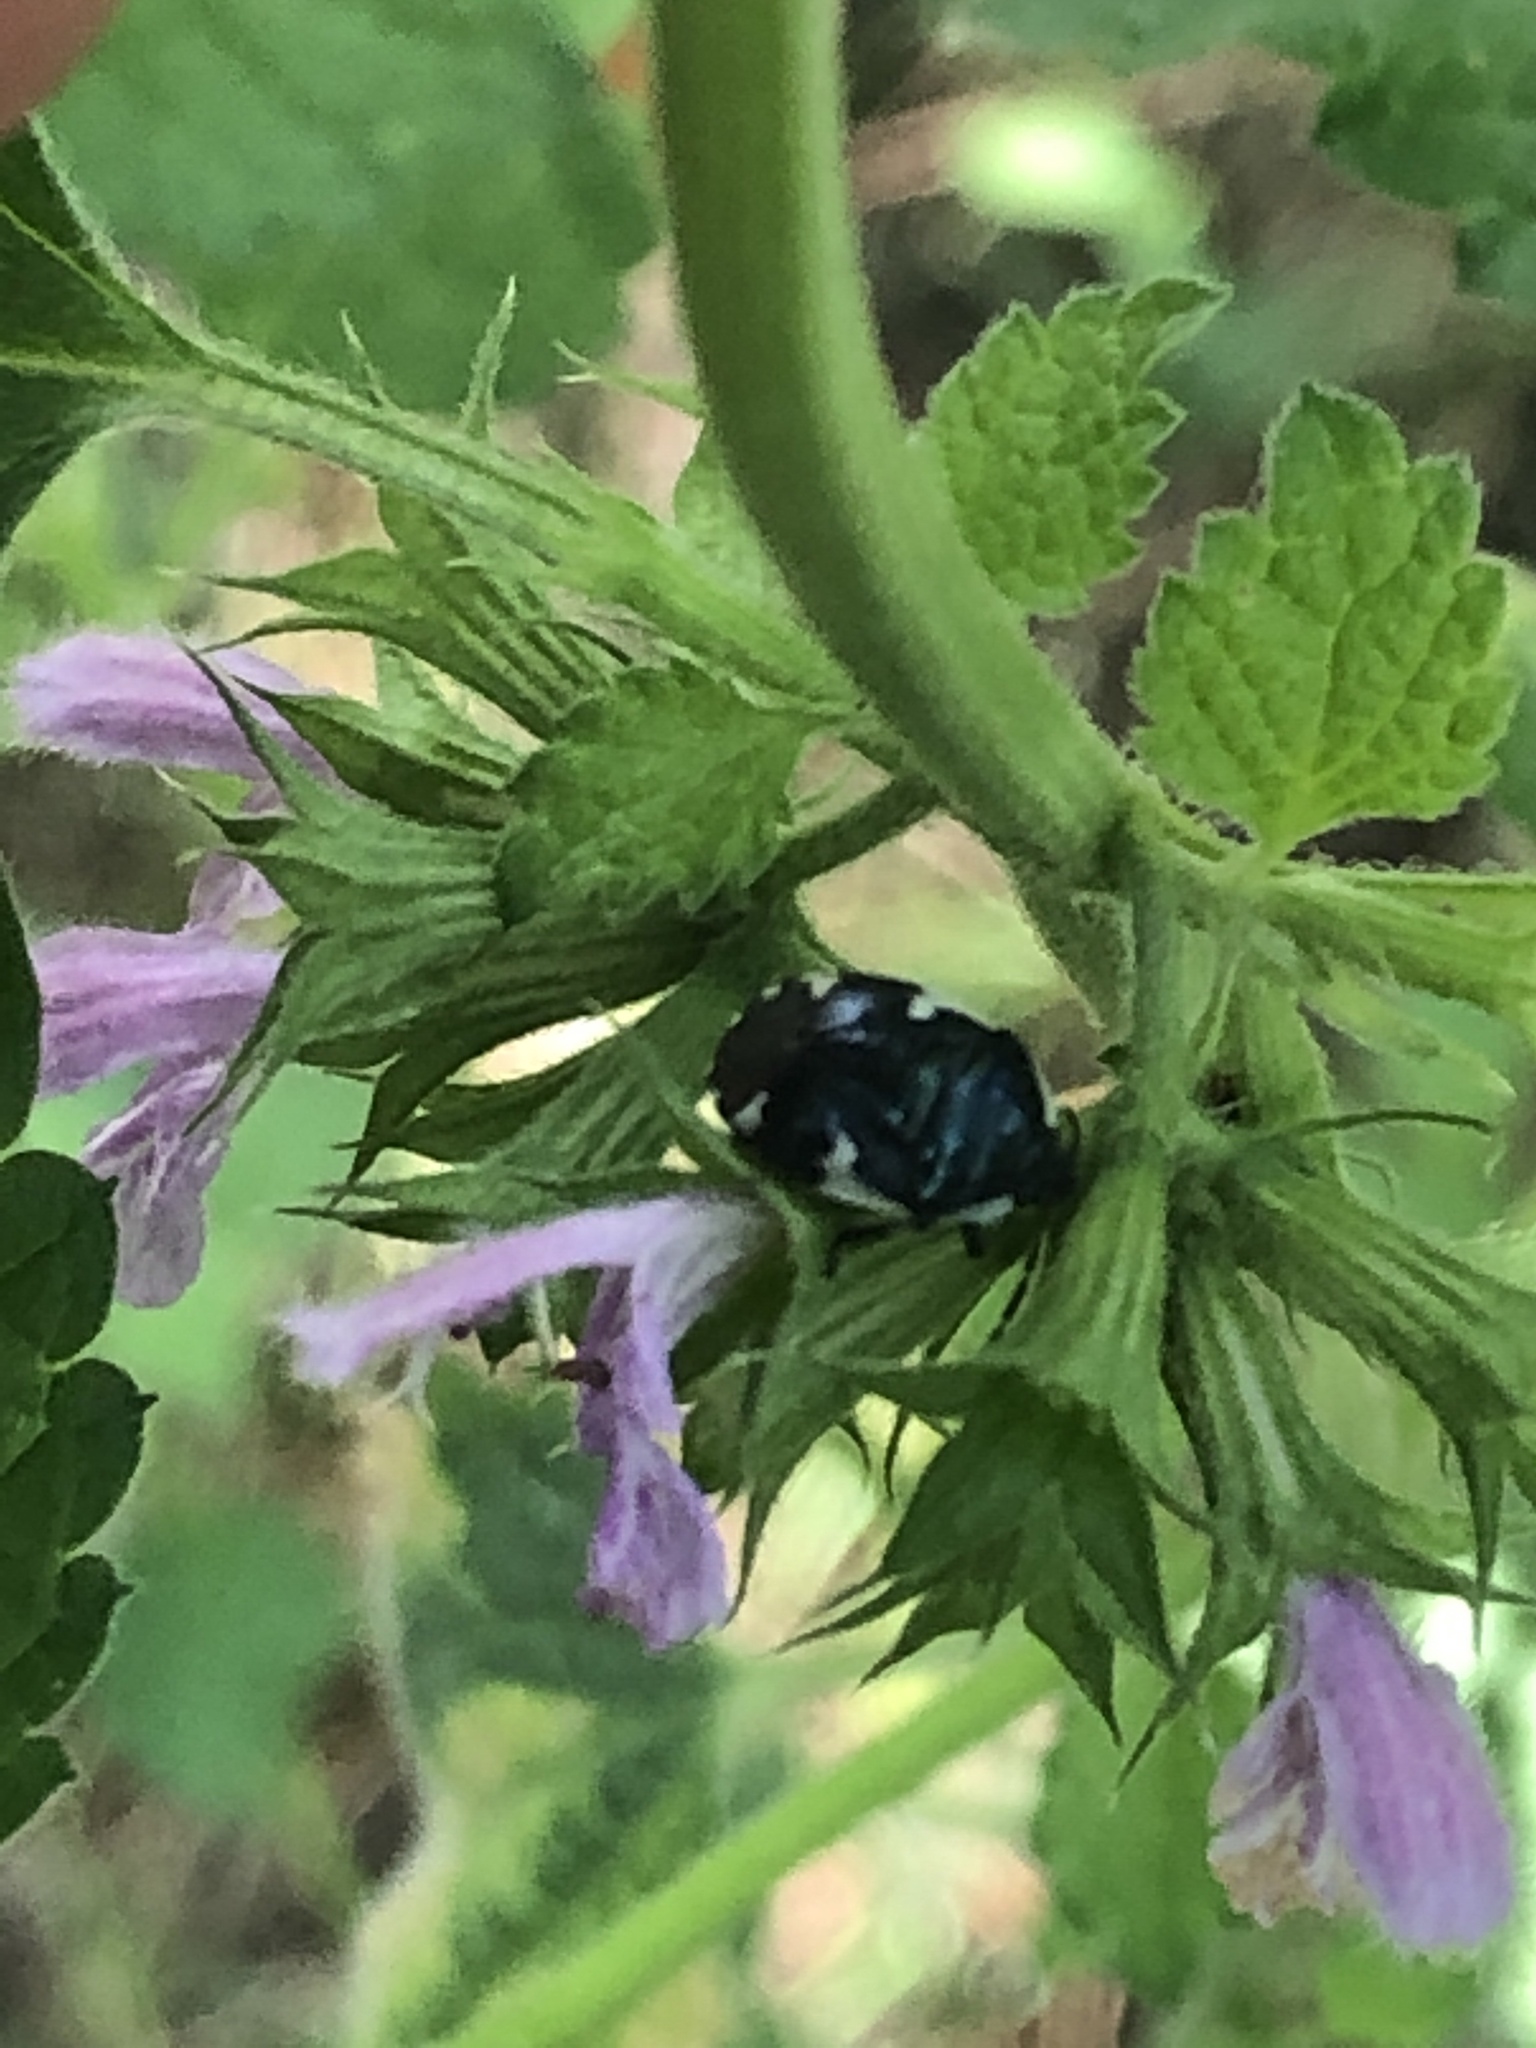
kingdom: Animalia
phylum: Arthropoda
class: Insecta
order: Hemiptera
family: Cydnidae
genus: Tritomegas
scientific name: Tritomegas sexmaculatus
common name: Rambur's pied shieldbug
